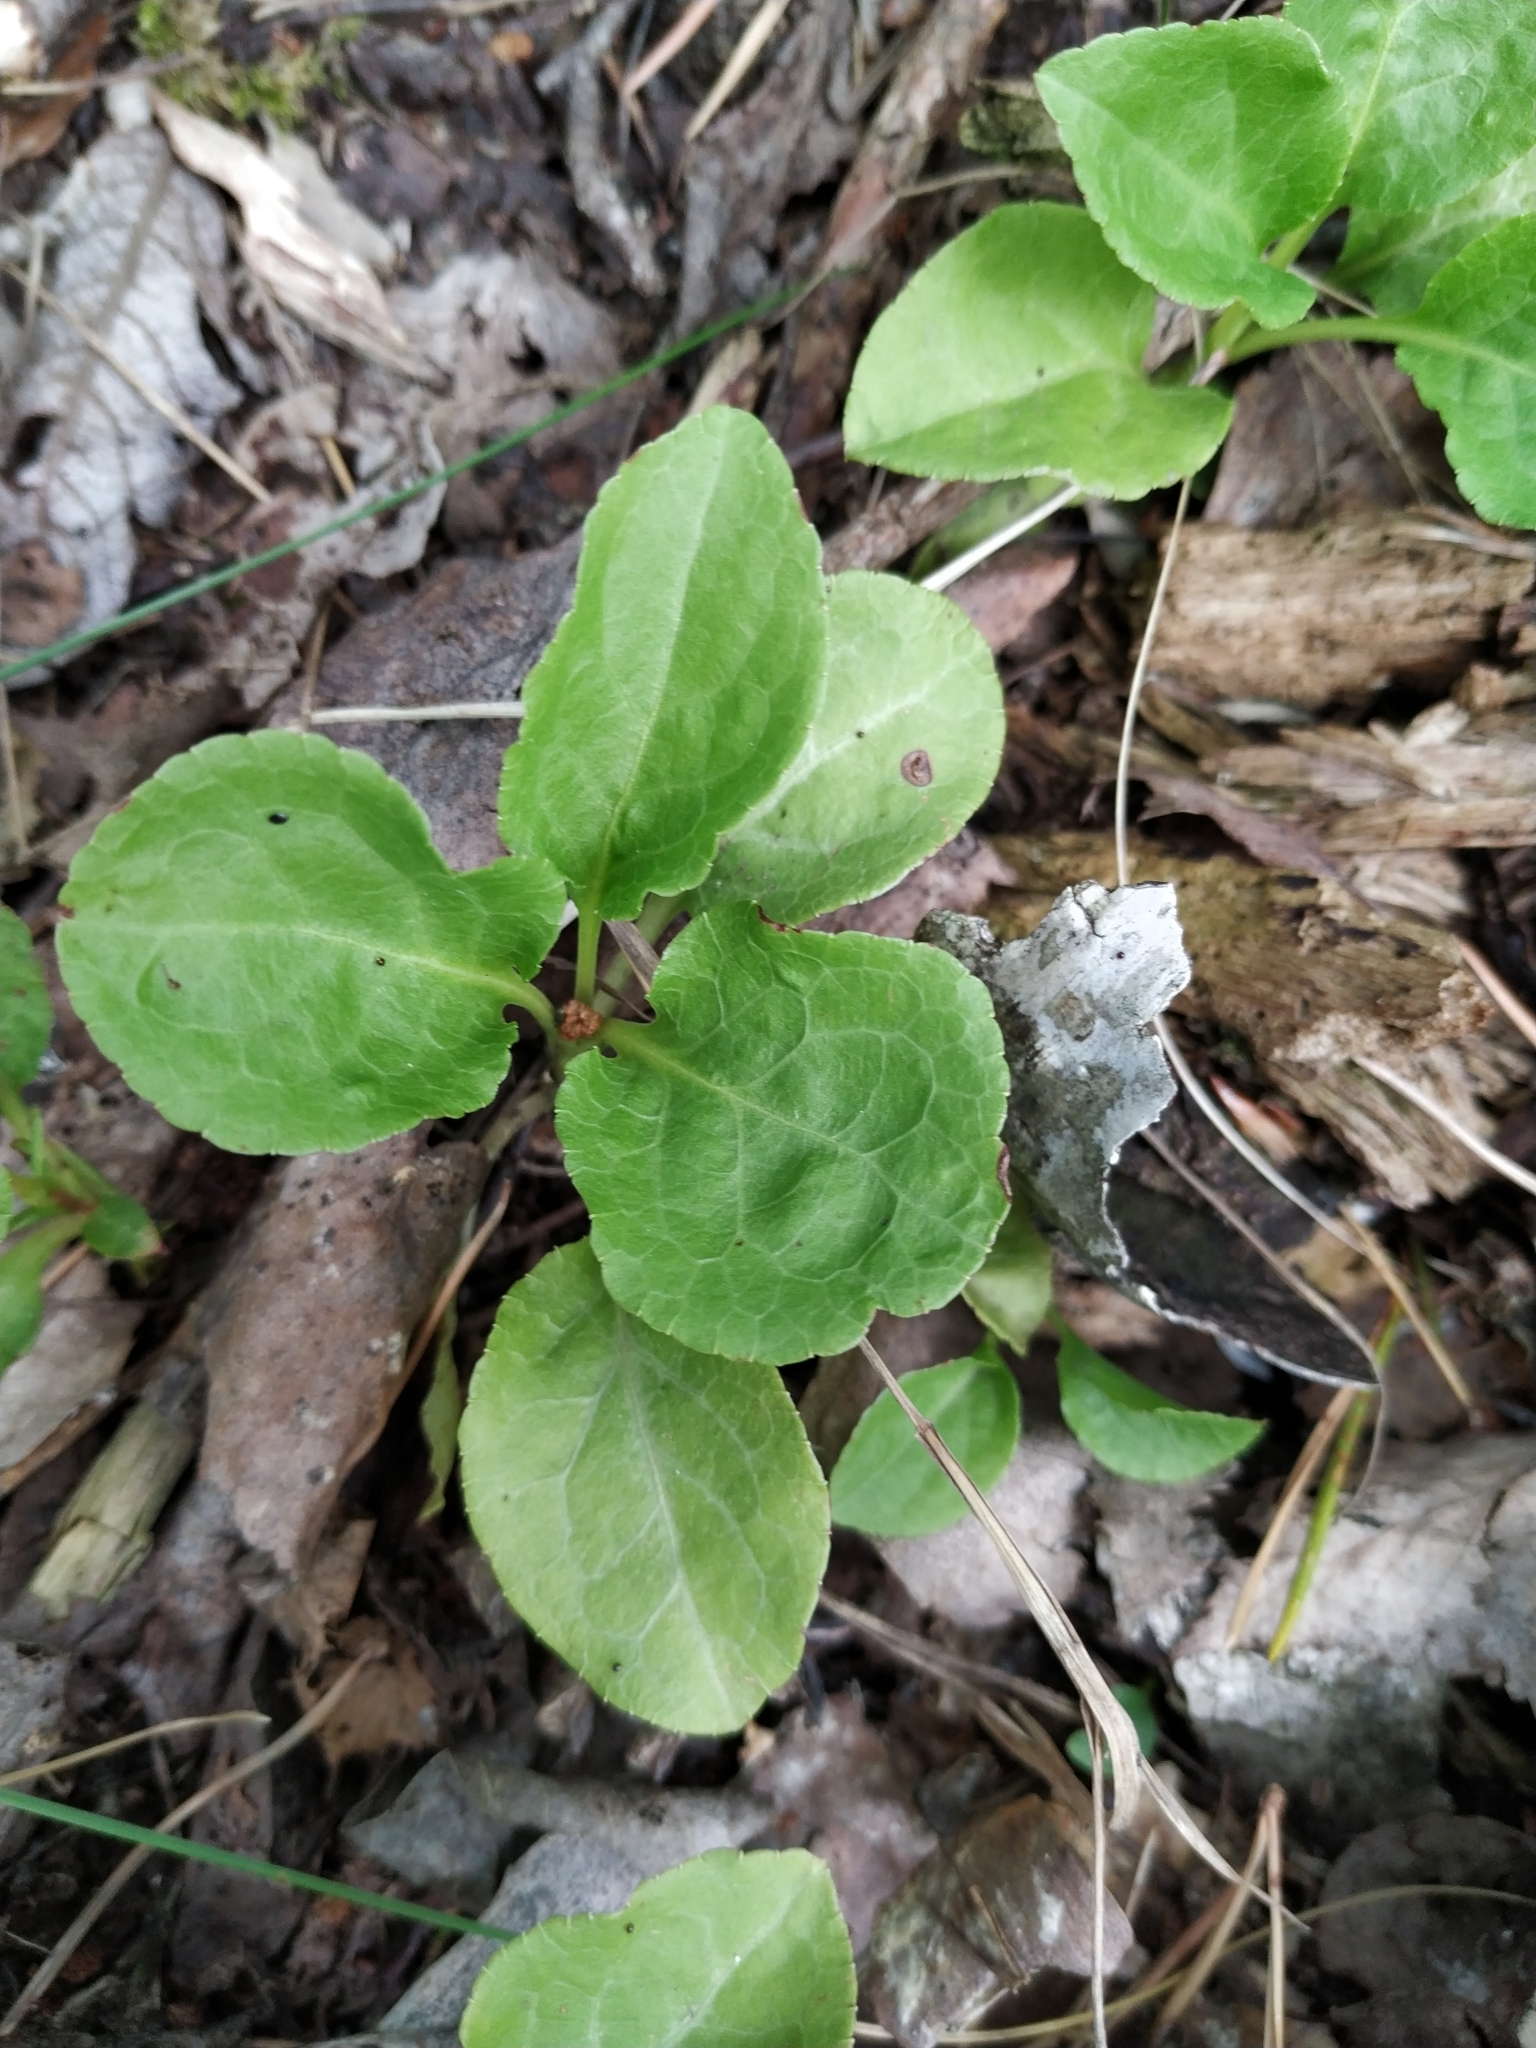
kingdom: Plantae
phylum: Tracheophyta
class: Magnoliopsida
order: Ericales
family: Ericaceae
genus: Pyrola
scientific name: Pyrola minor
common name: Common wintergreen
